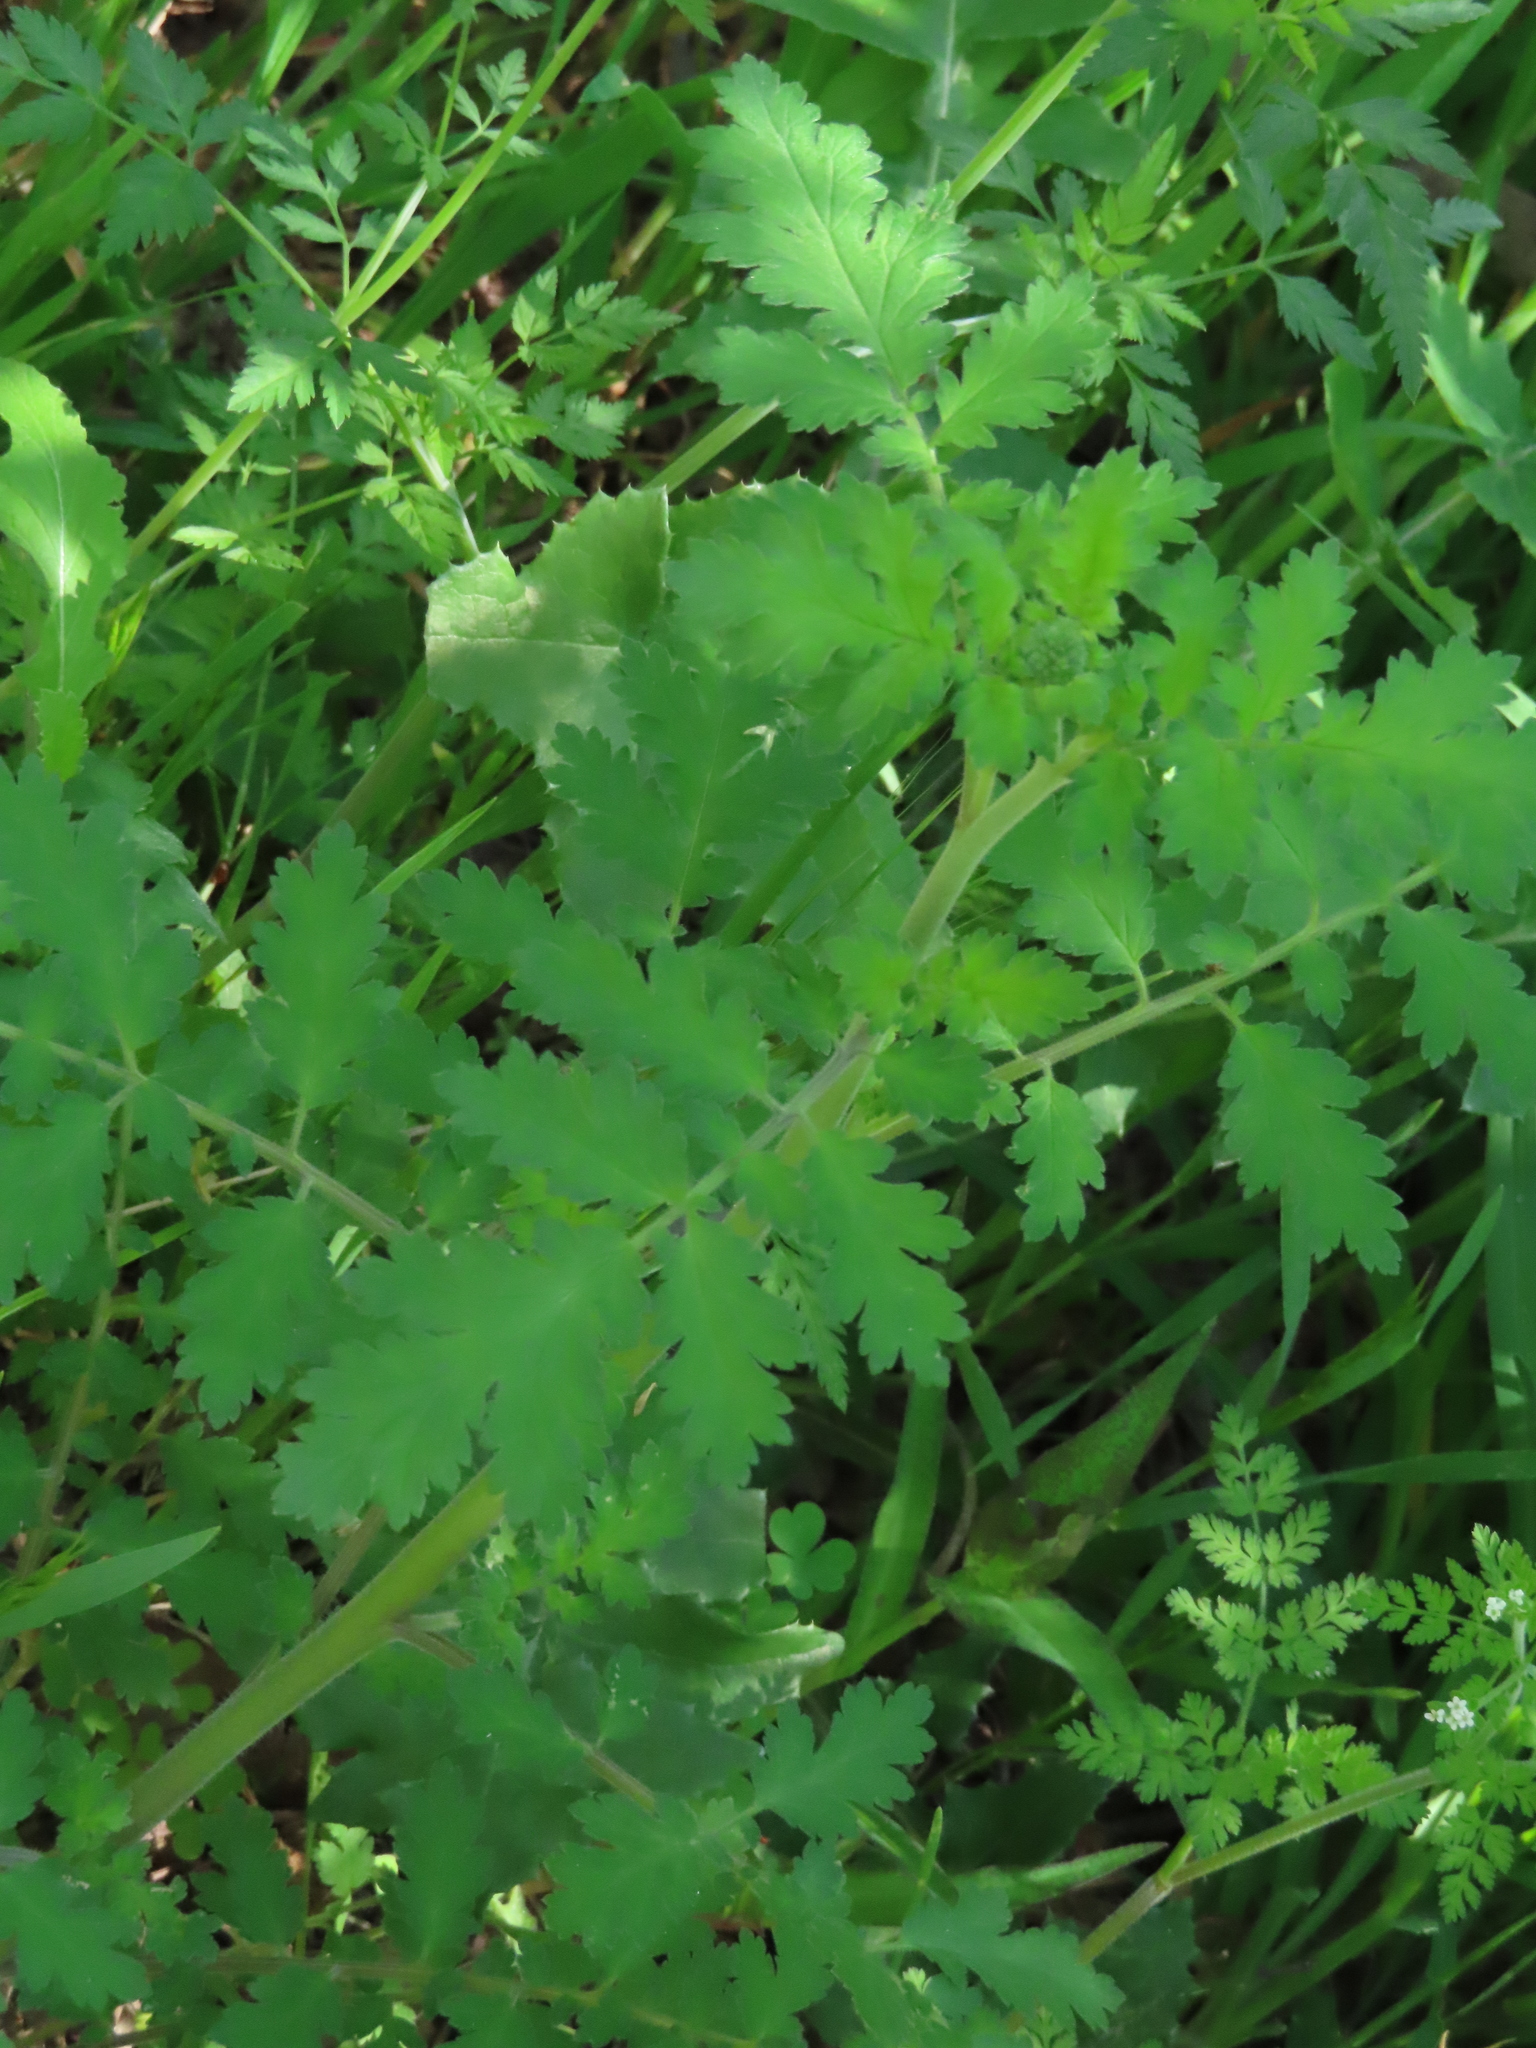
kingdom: Plantae
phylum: Tracheophyta
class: Magnoliopsida
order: Boraginales
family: Hydrophyllaceae
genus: Phacelia
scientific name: Phacelia congesta
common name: Blue curls
